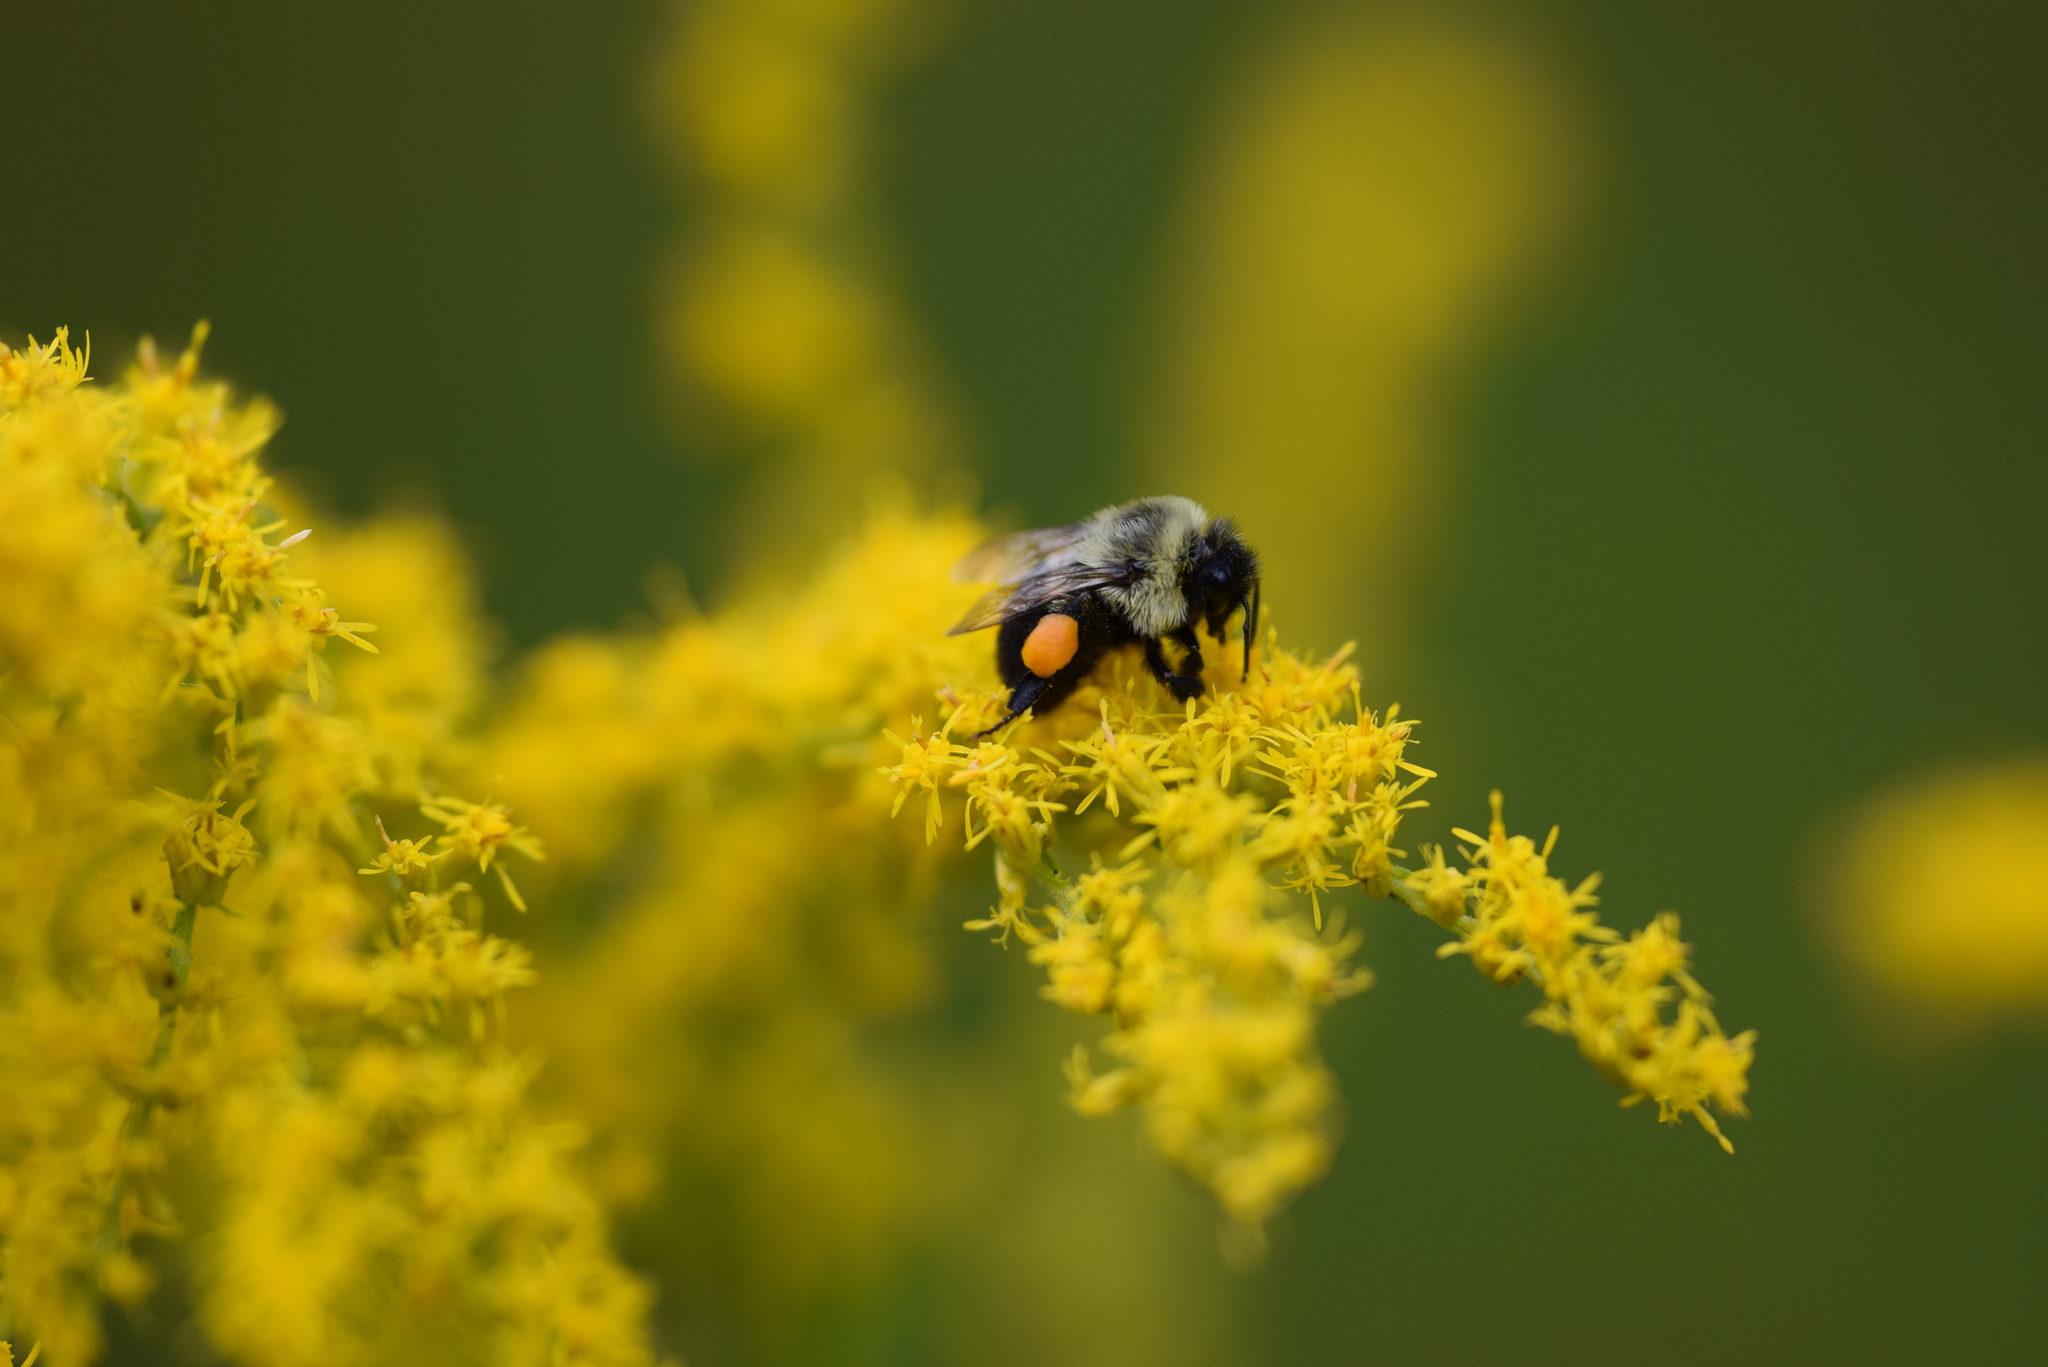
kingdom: Animalia
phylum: Arthropoda
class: Insecta
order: Hymenoptera
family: Apidae
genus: Bombus
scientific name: Bombus impatiens
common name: Common eastern bumble bee
